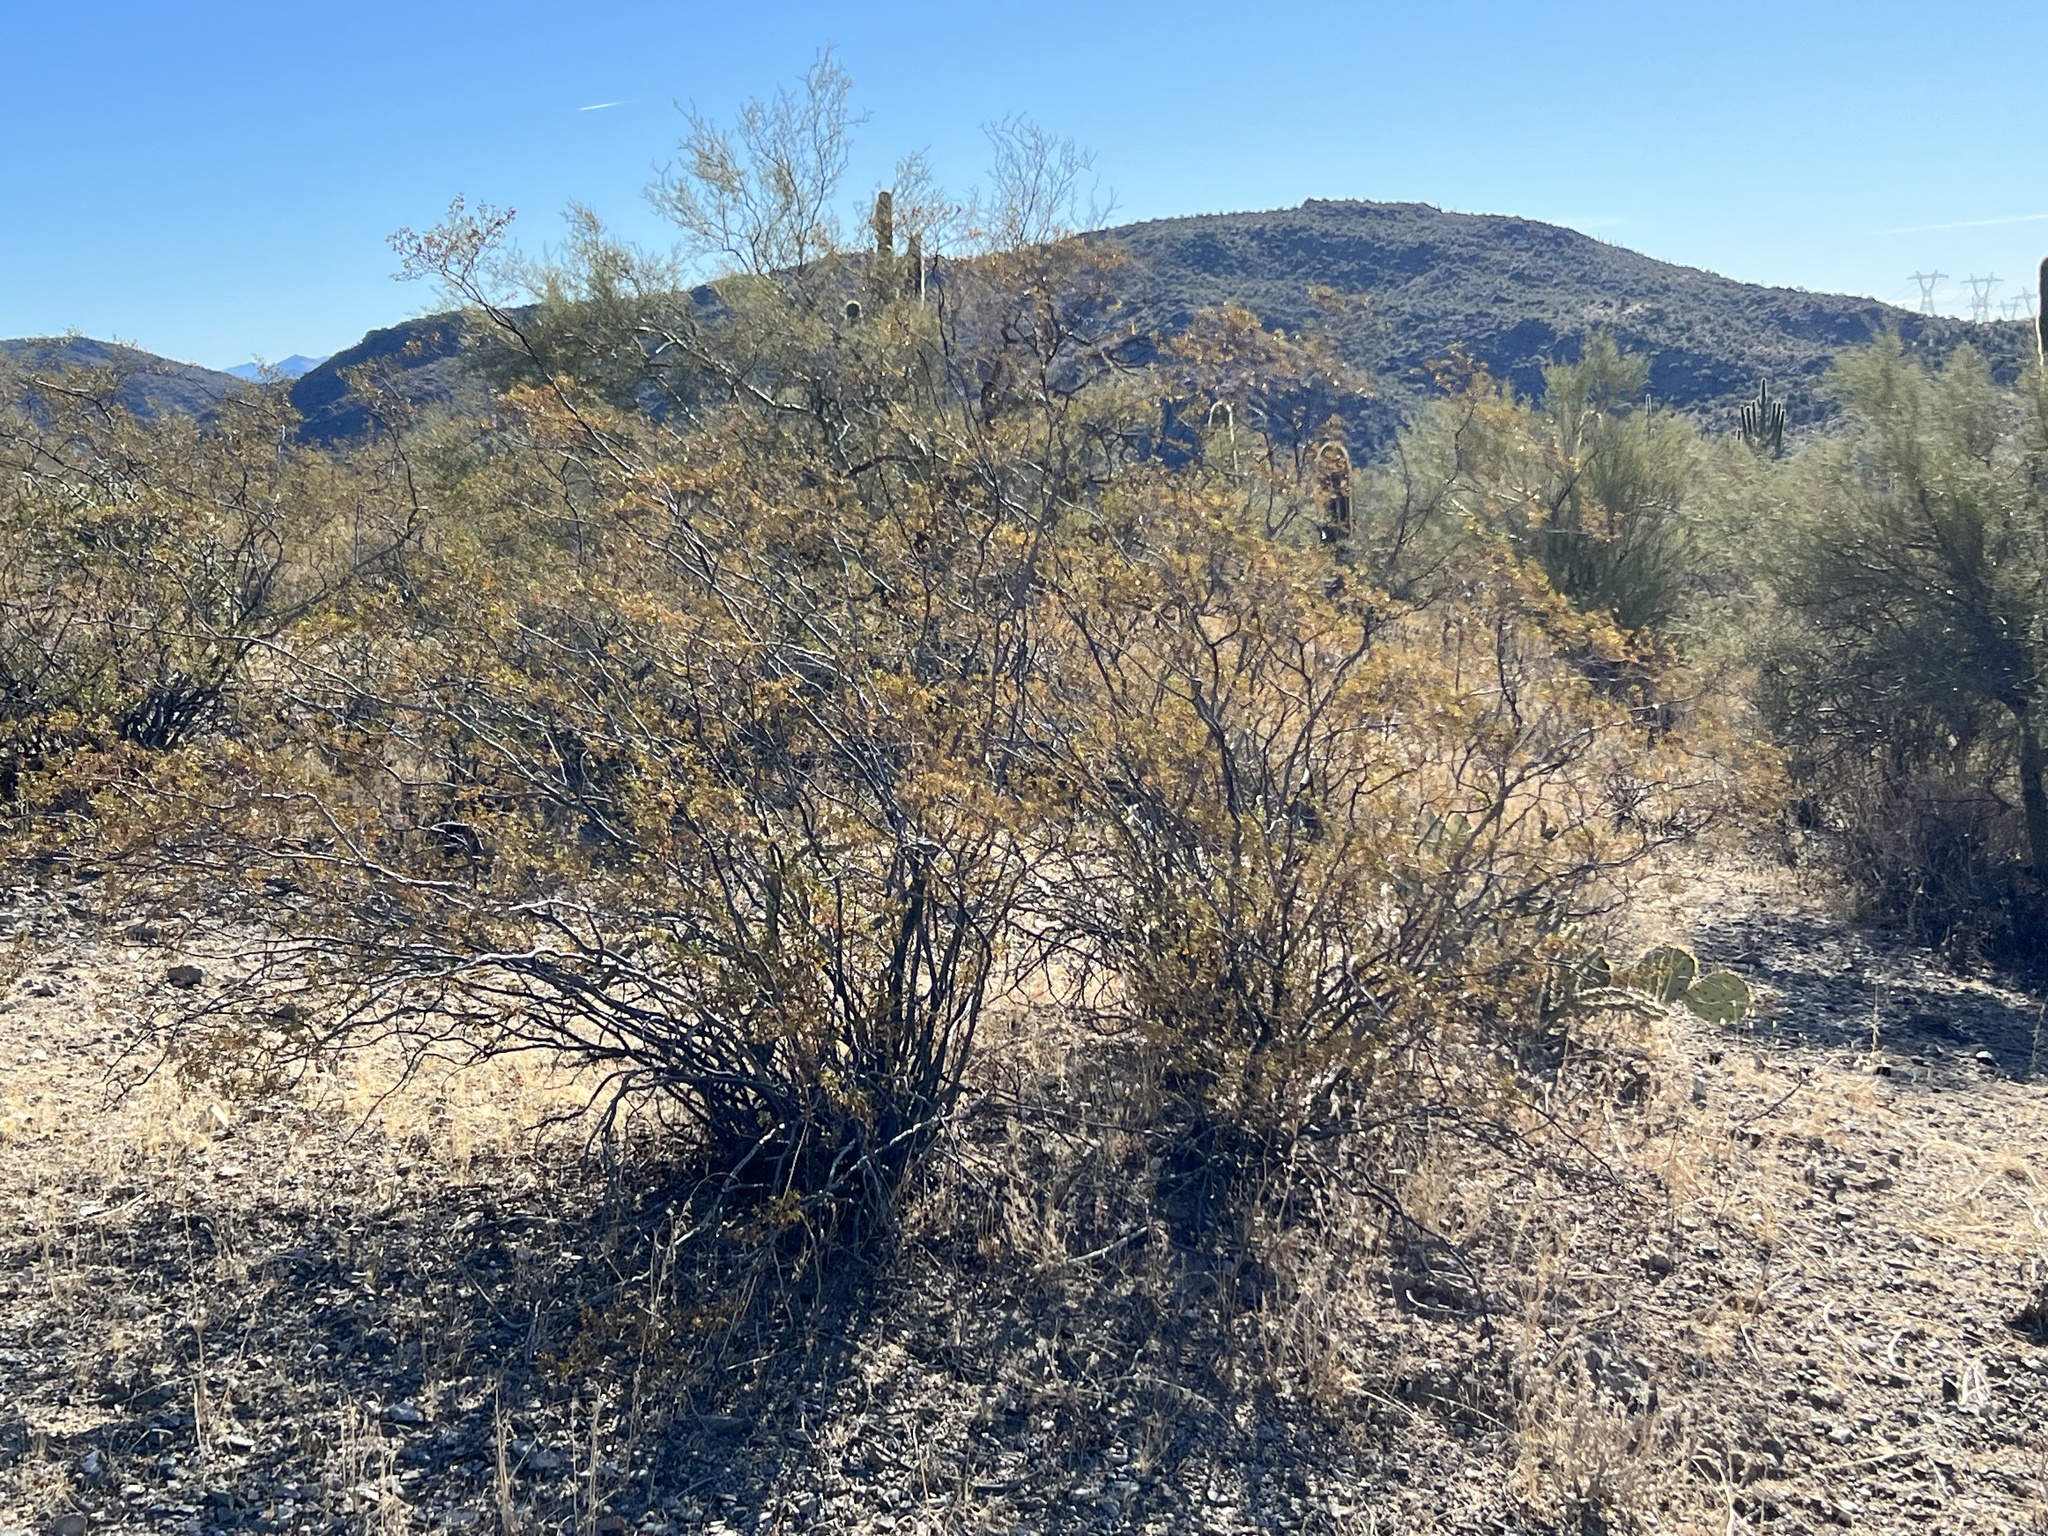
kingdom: Plantae
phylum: Tracheophyta
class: Magnoliopsida
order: Zygophyllales
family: Zygophyllaceae
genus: Larrea
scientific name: Larrea tridentata
